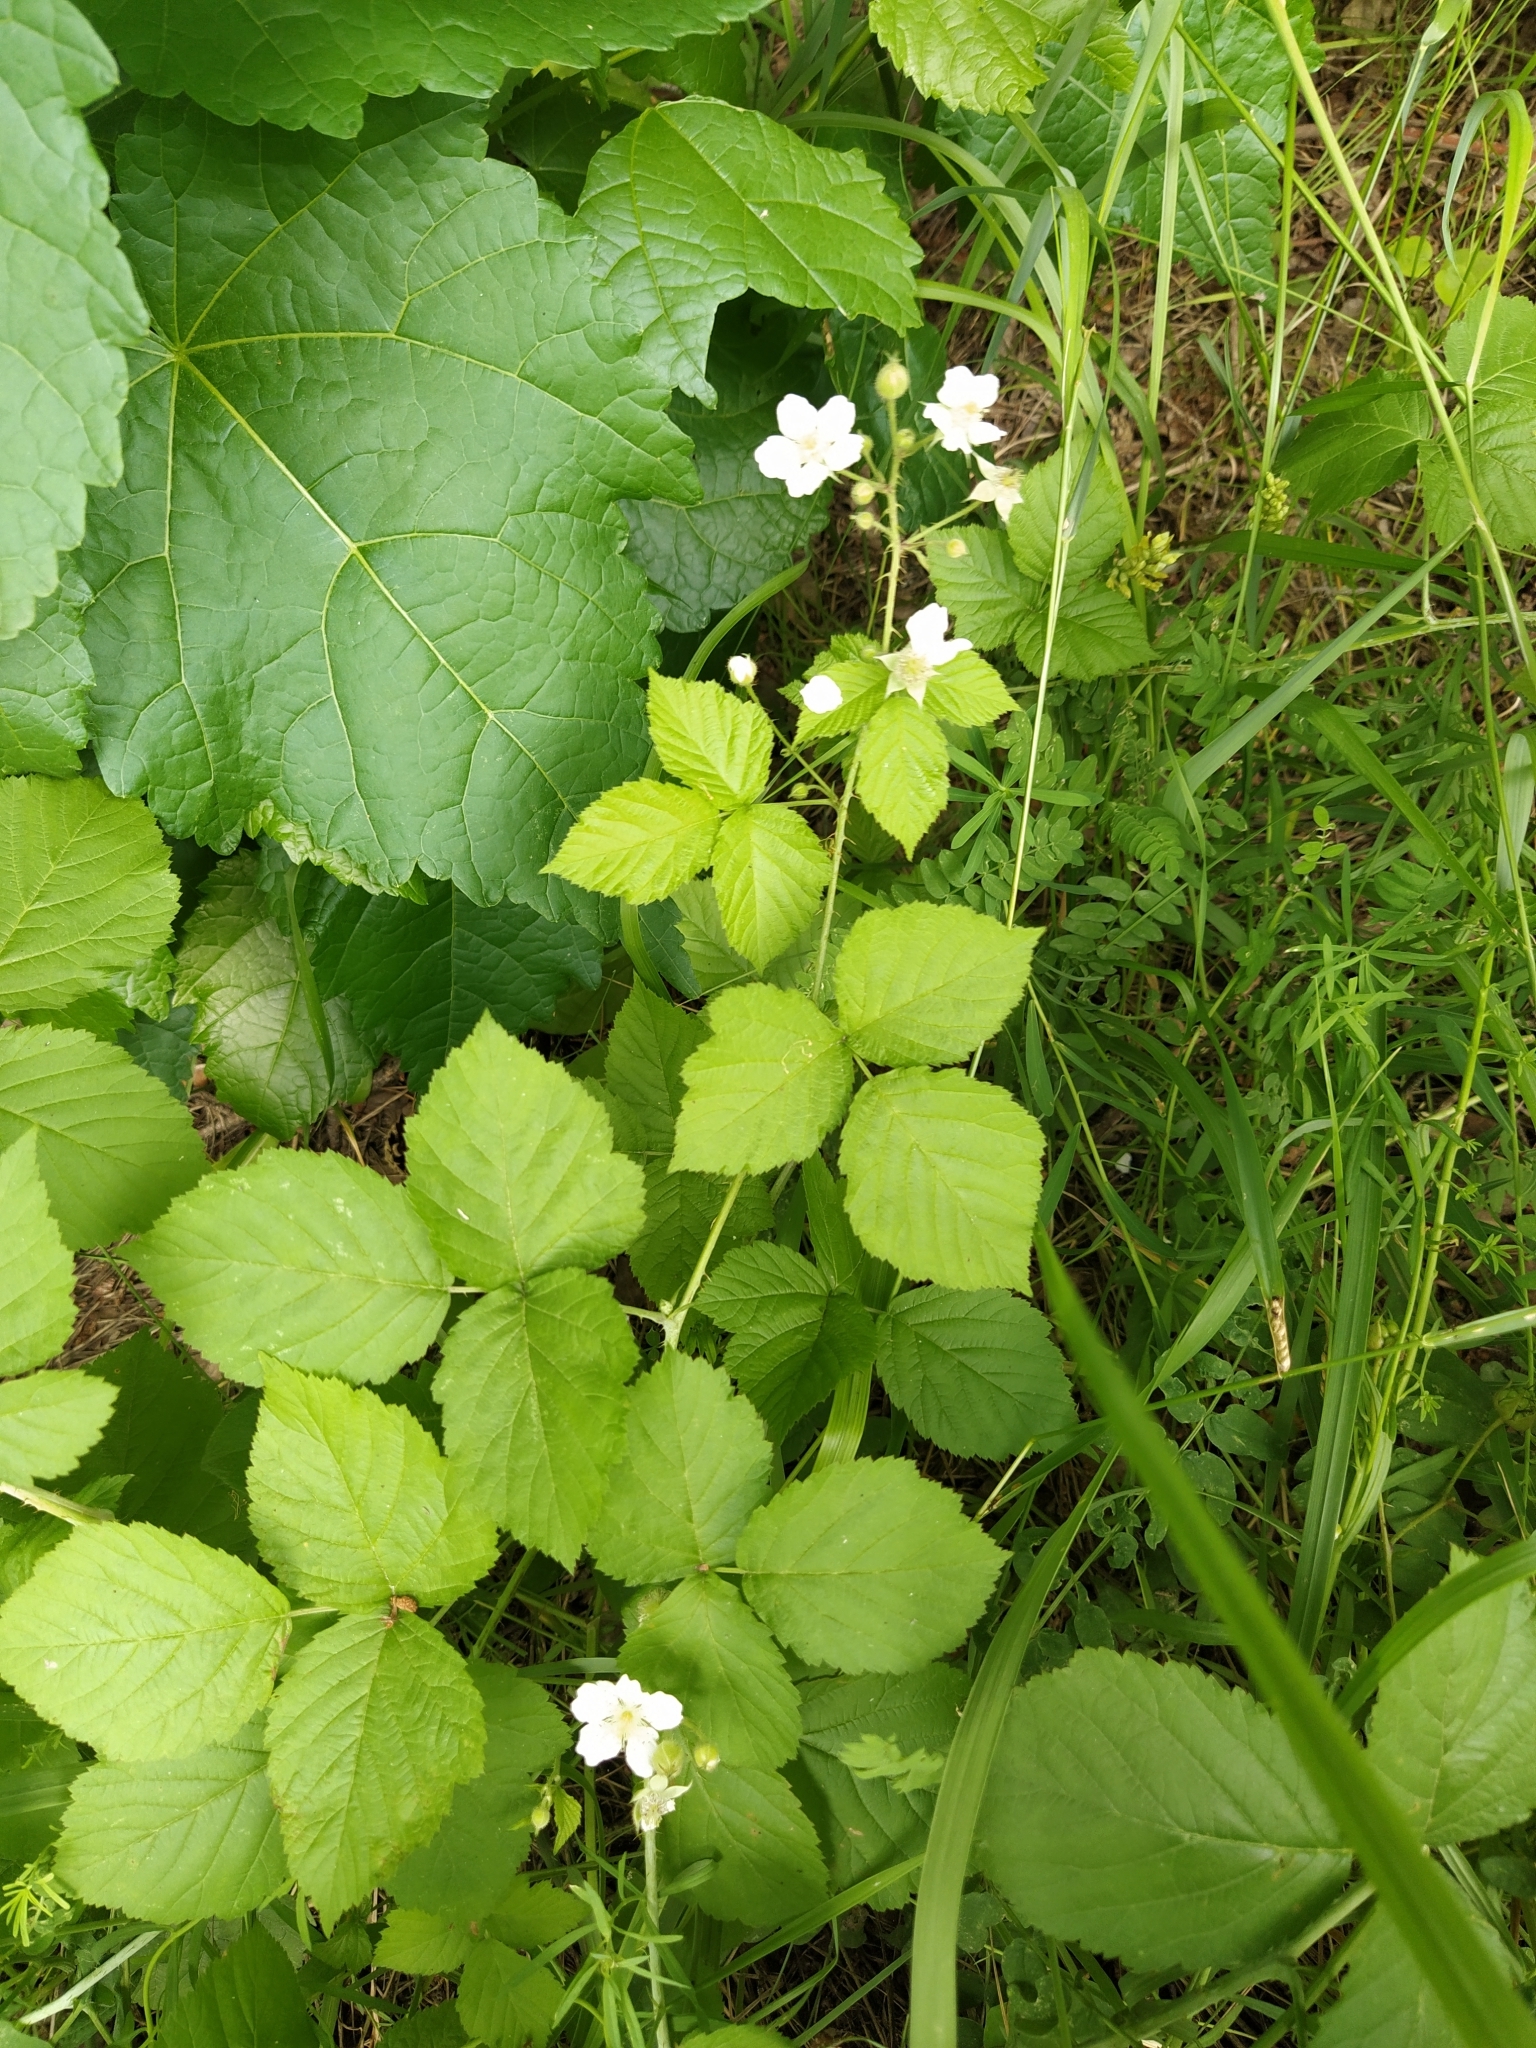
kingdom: Plantae
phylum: Tracheophyta
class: Magnoliopsida
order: Rosales
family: Rosaceae
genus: Rubus
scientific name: Rubus caesius
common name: Dewberry
